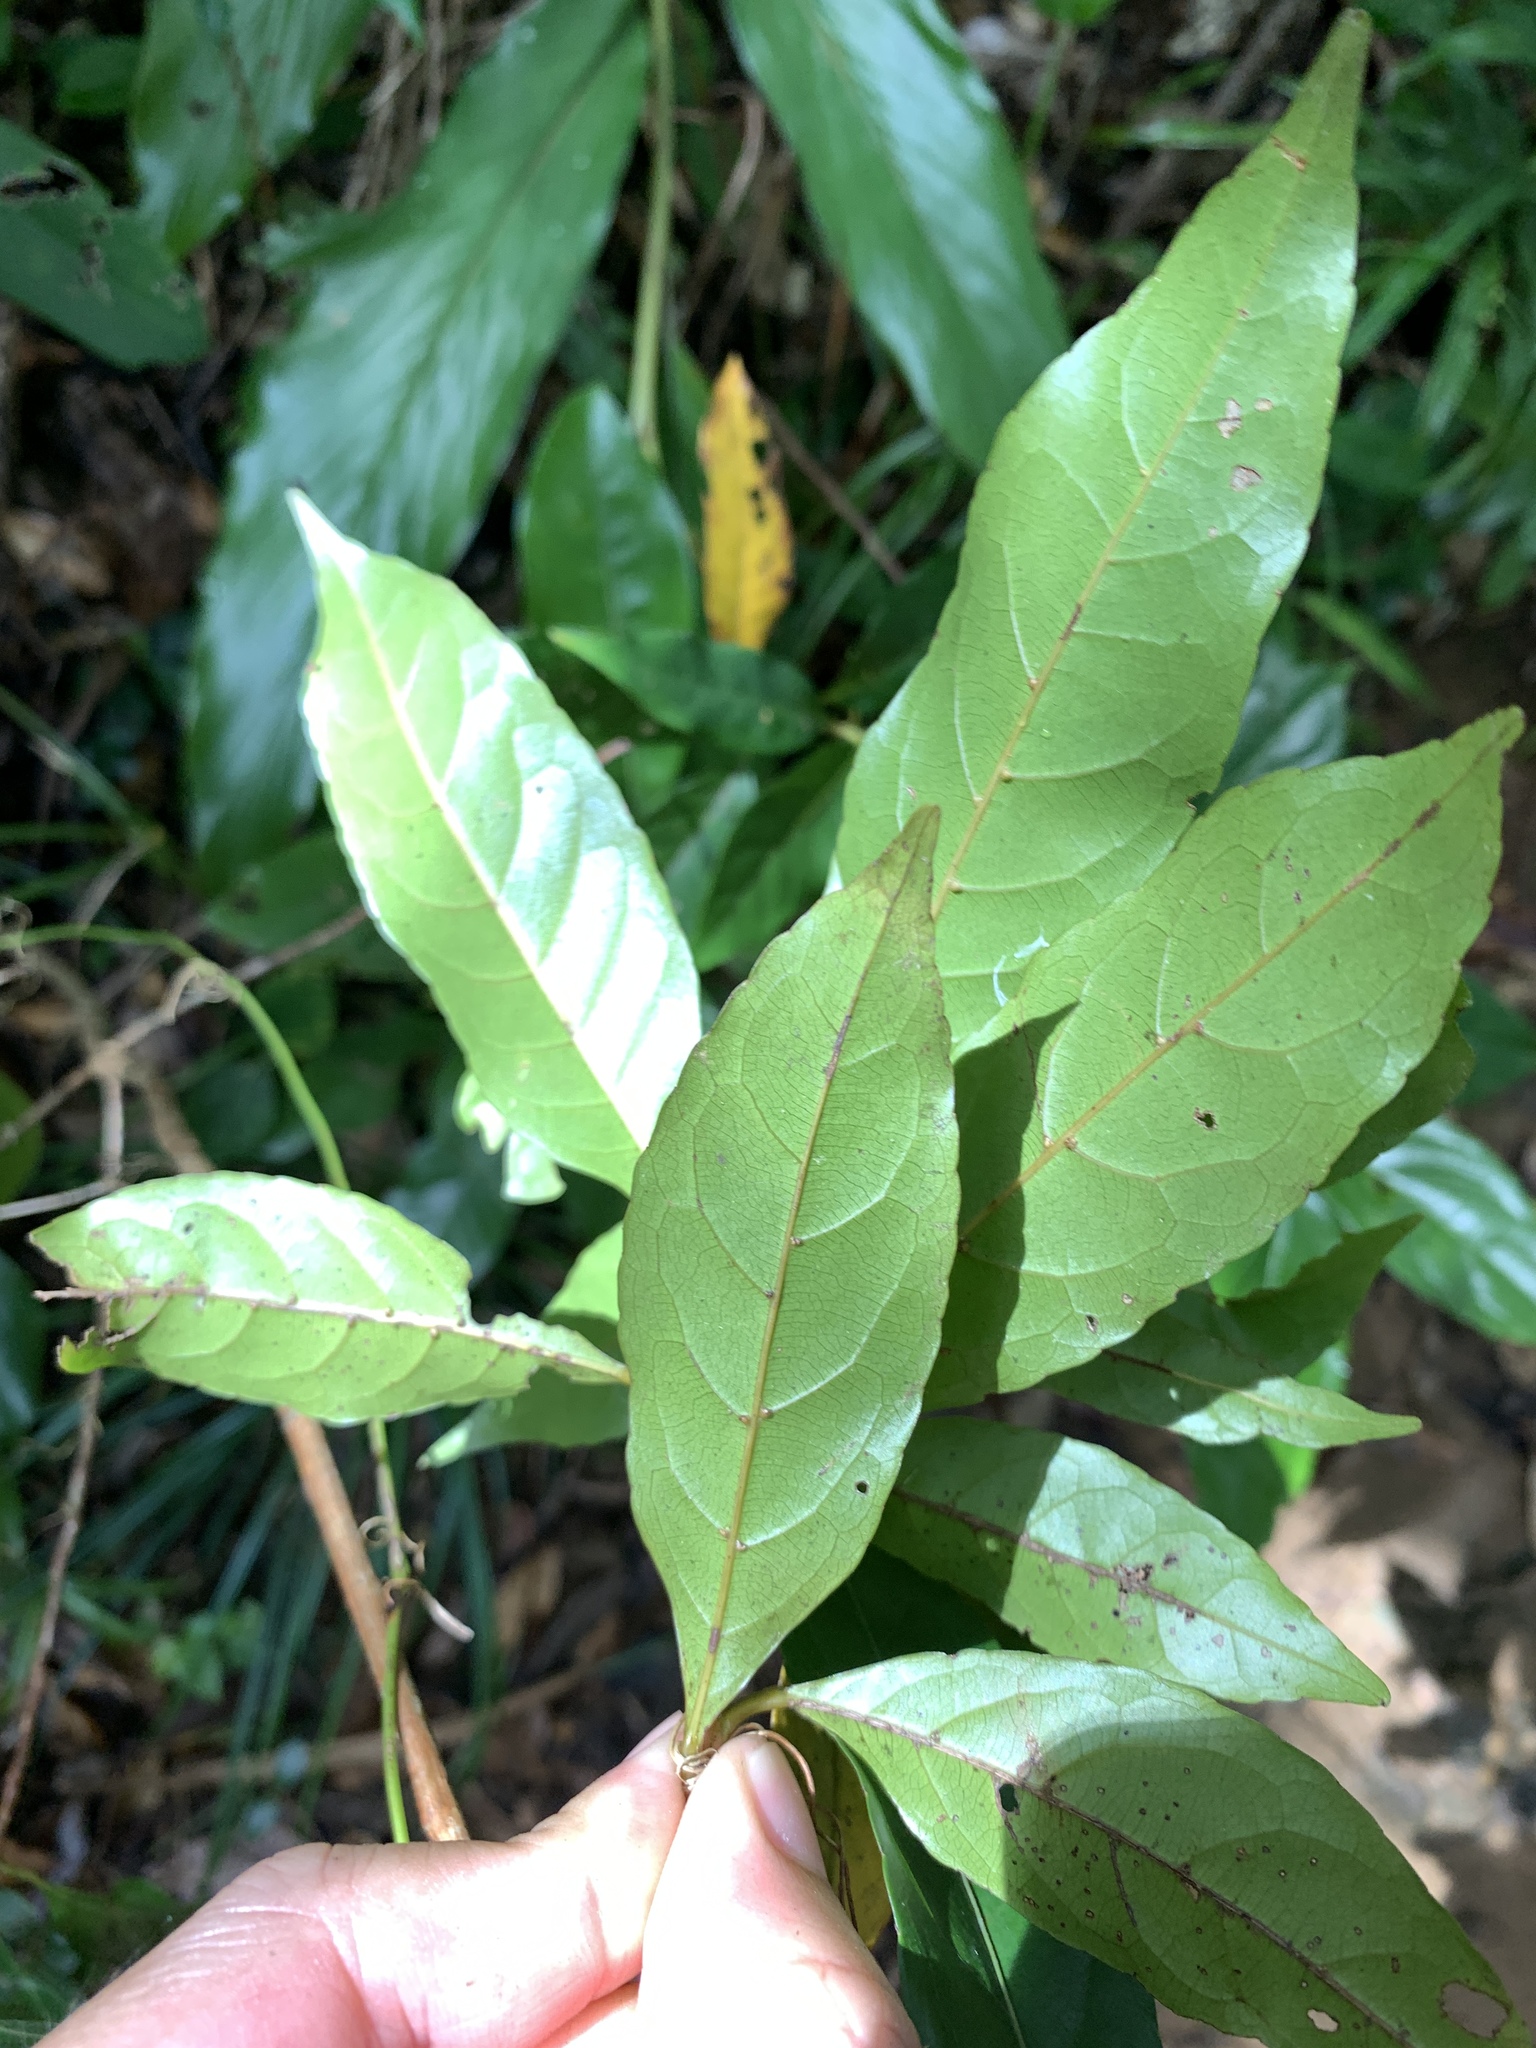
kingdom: Plantae
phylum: Tracheophyta
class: Magnoliopsida
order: Oxalidales
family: Elaeocarpaceae
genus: Elaeocarpus
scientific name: Elaeocarpus argenteus
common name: Flowering plant
